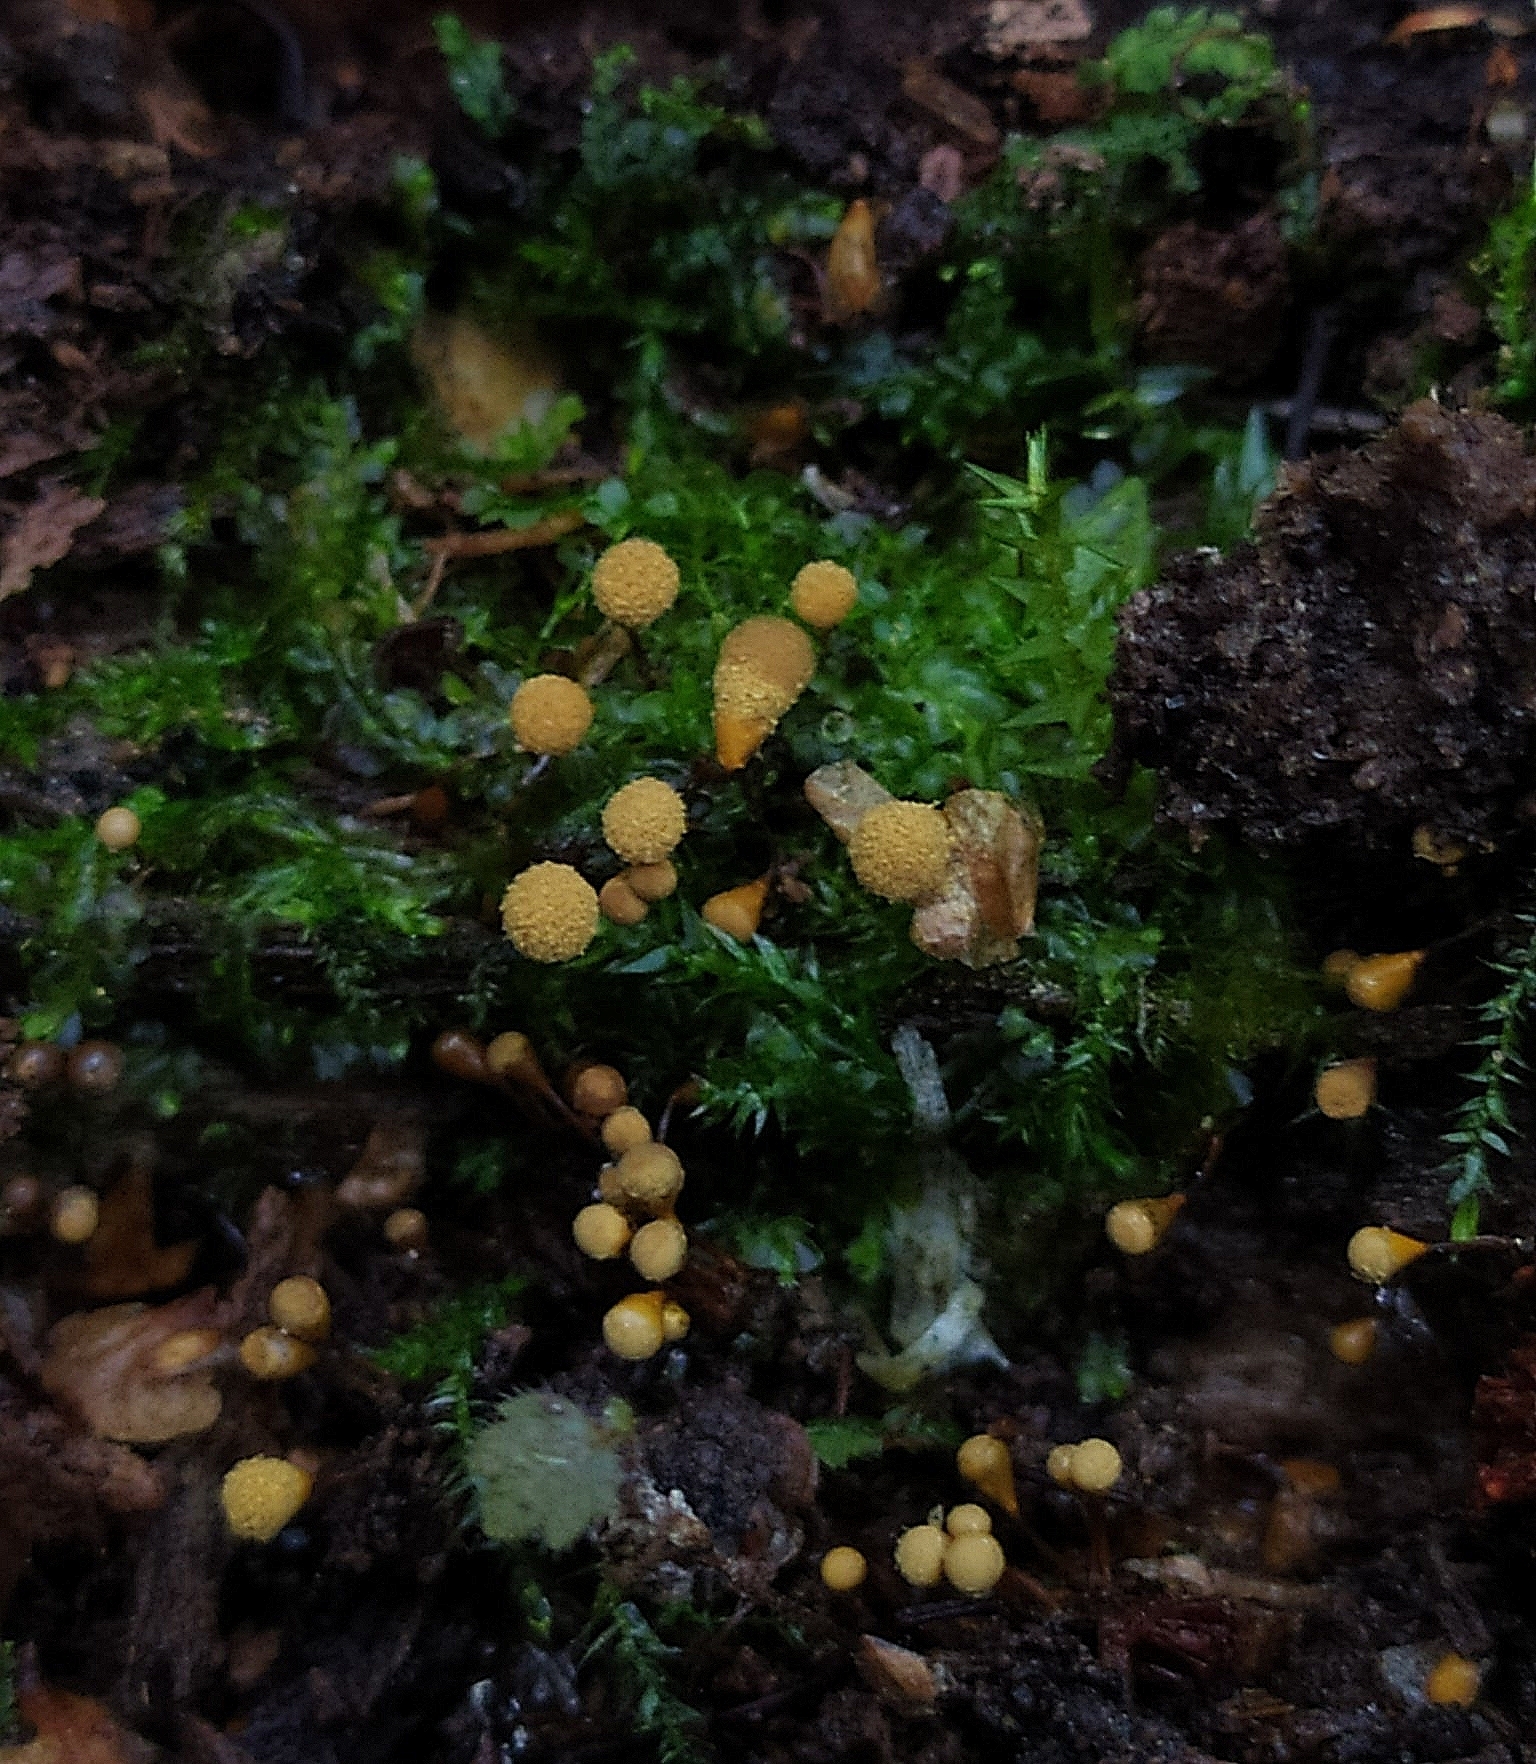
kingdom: Protozoa
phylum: Mycetozoa
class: Myxomycetes
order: Trichiales
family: Arcyriaceae
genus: Hemitrichia
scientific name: Hemitrichia calyculata
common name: Push pin slime mold
